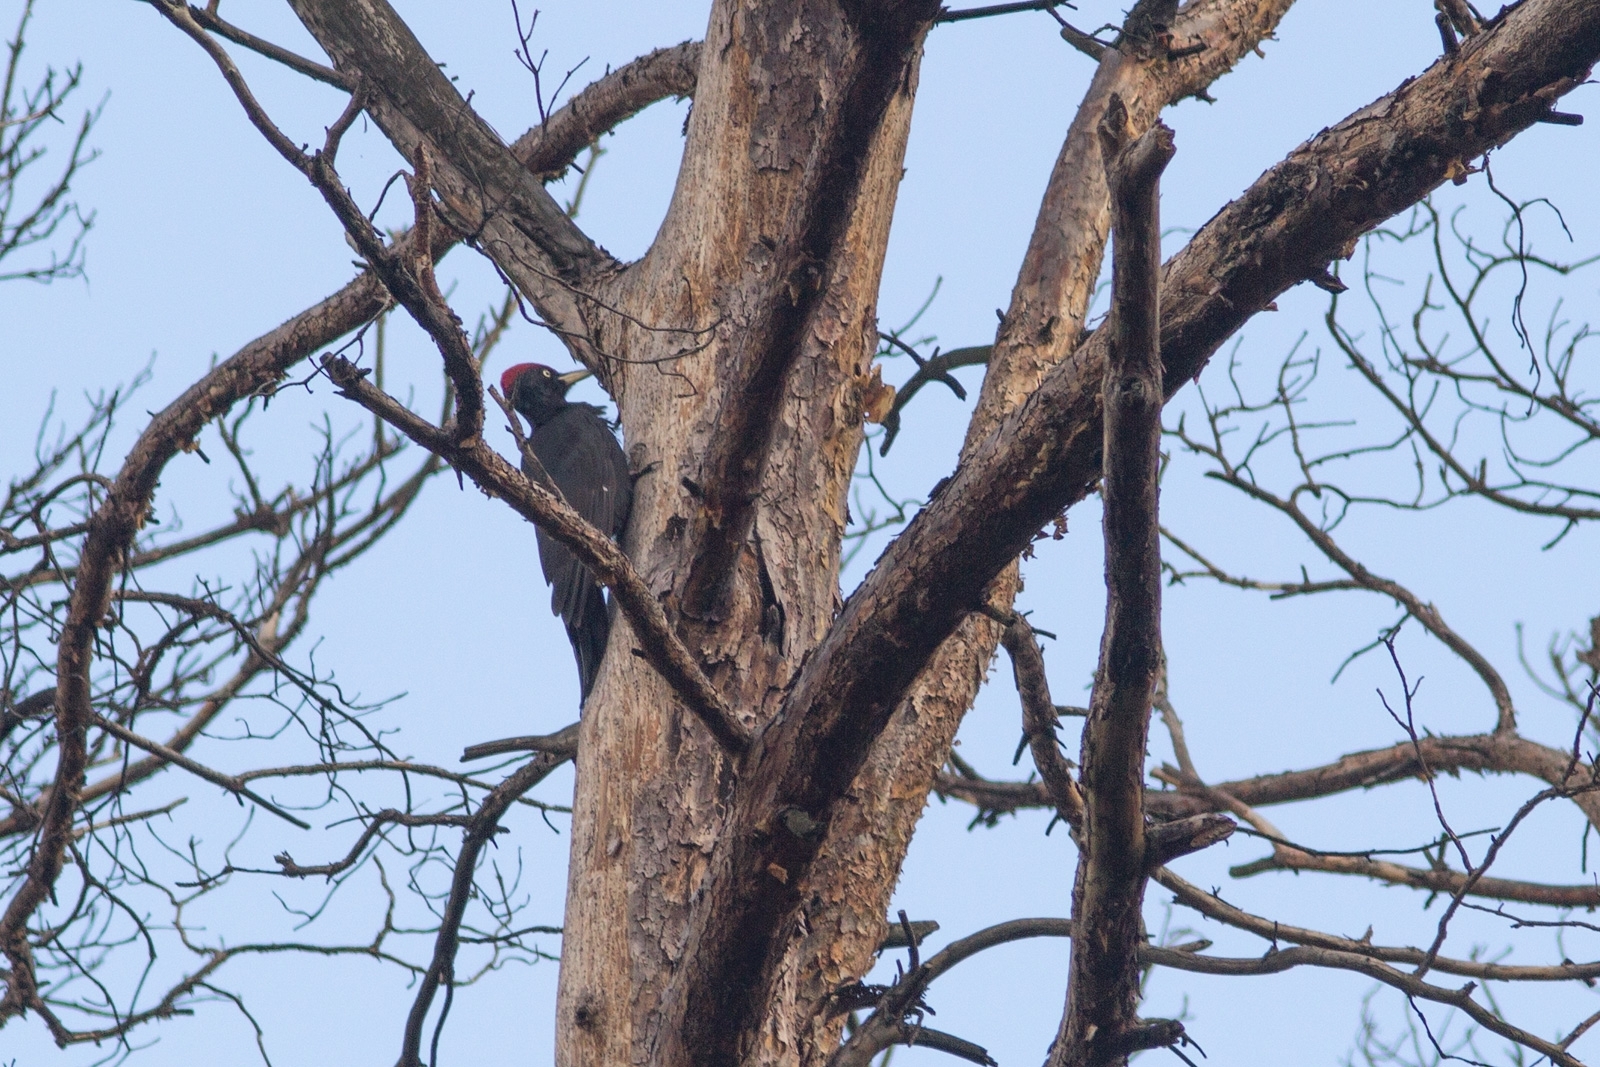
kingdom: Animalia
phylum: Chordata
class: Aves
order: Piciformes
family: Picidae
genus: Dryocopus
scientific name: Dryocopus martius
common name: Black woodpecker
